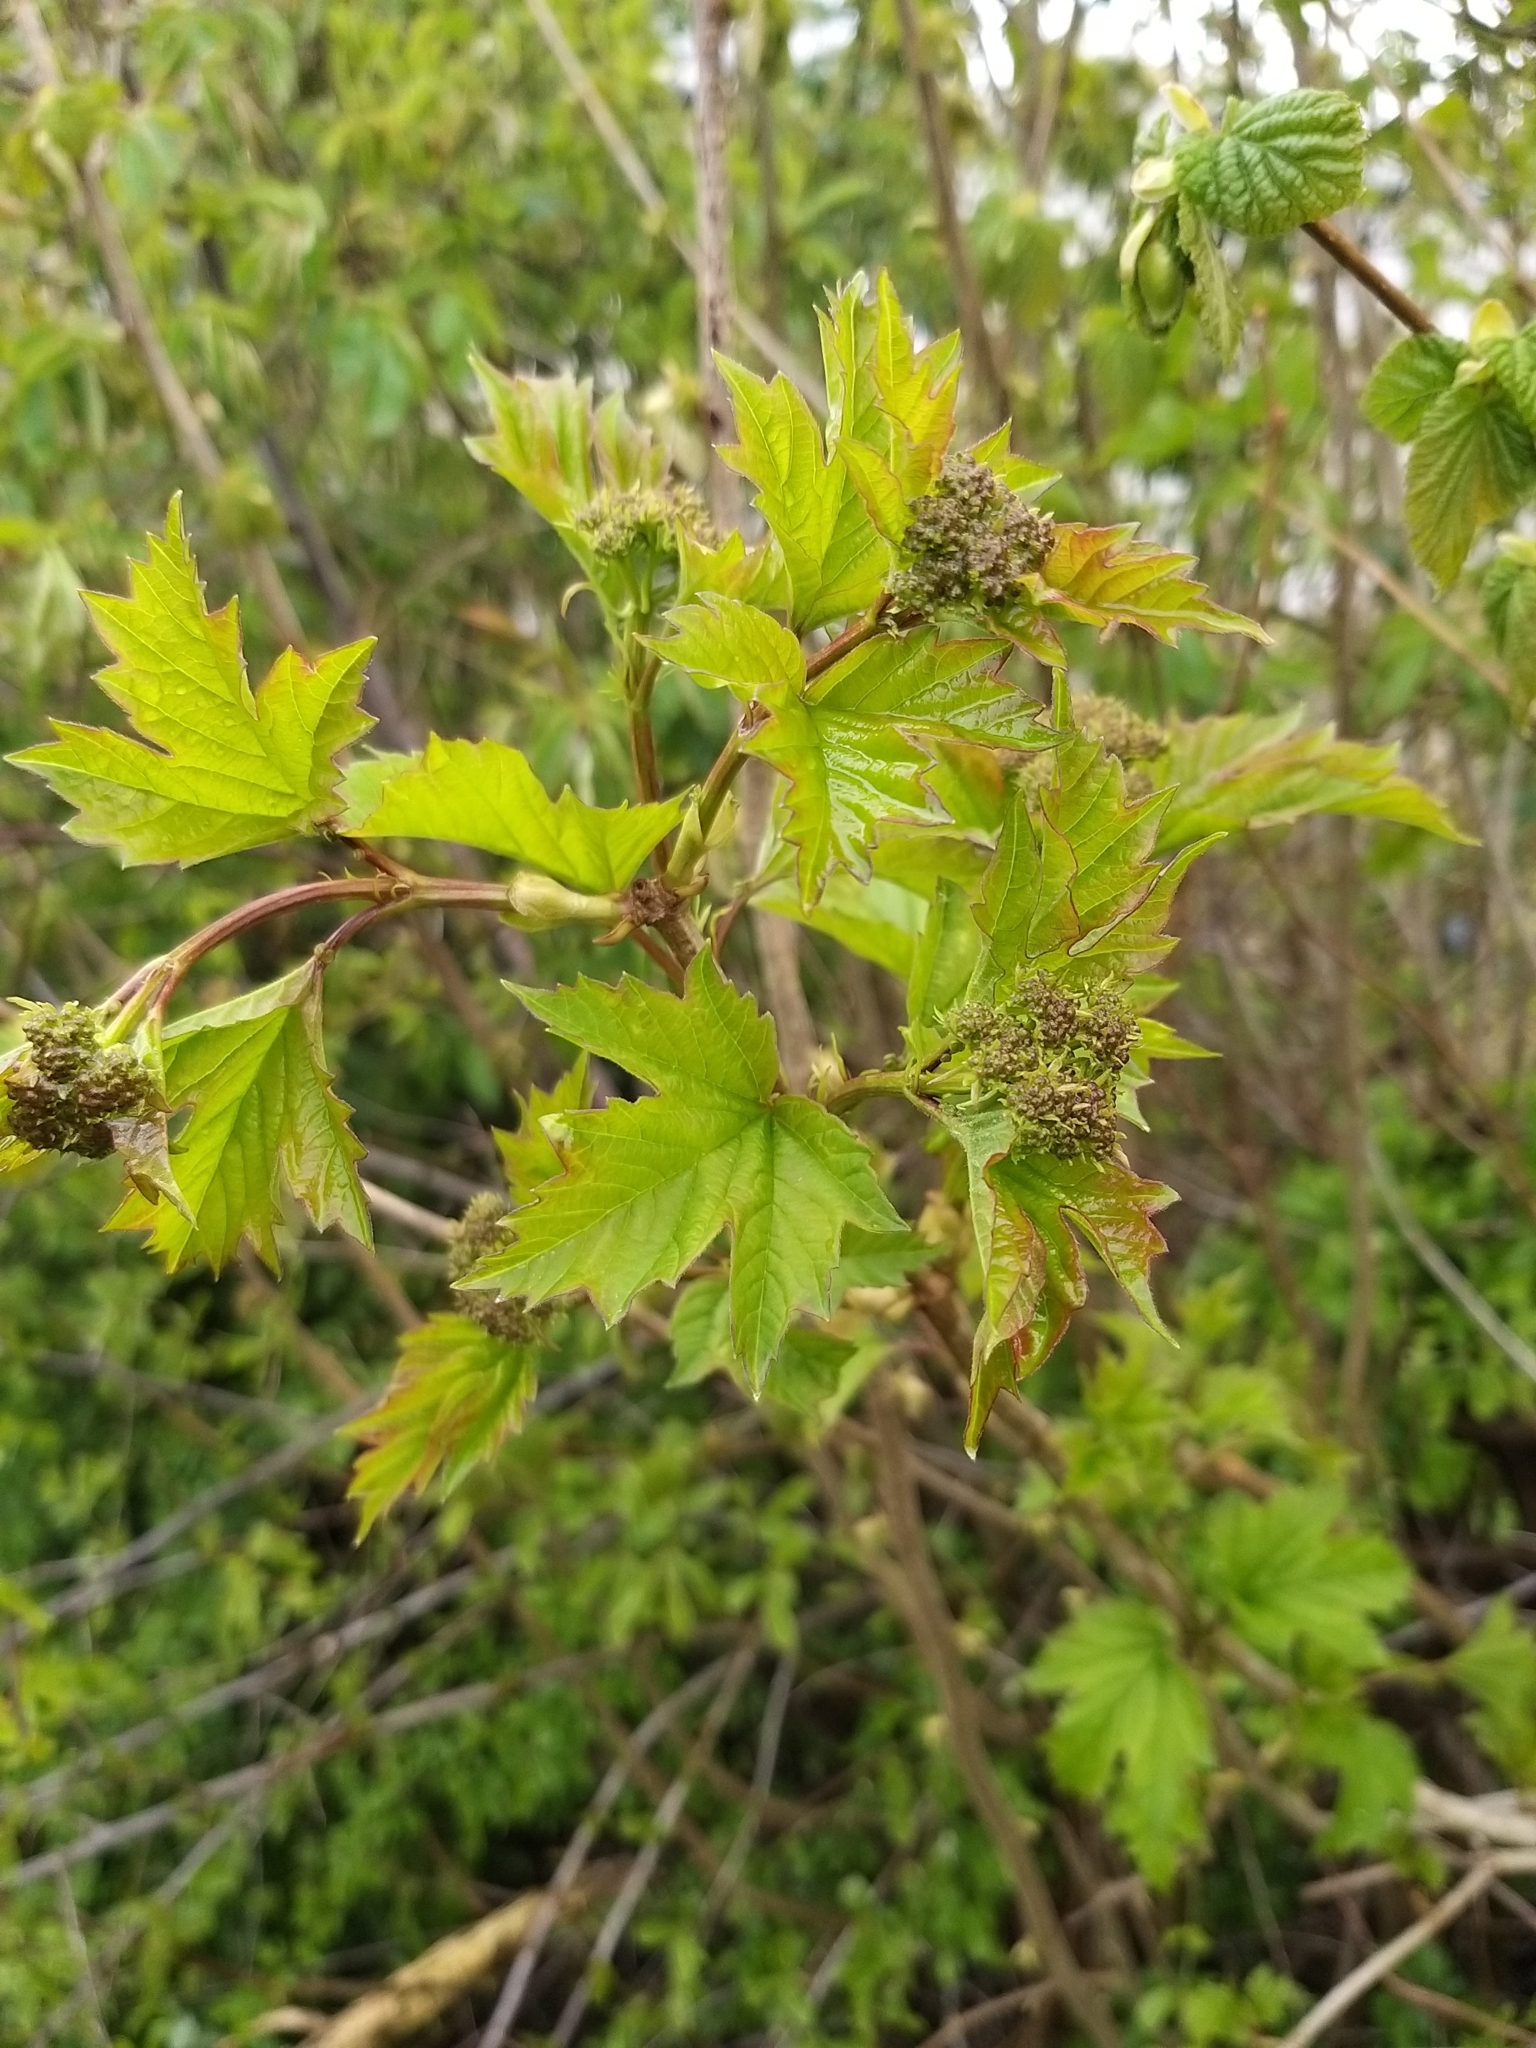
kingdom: Plantae
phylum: Tracheophyta
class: Magnoliopsida
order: Dipsacales
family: Viburnaceae
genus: Viburnum
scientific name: Viburnum opulus
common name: Guelder-rose
